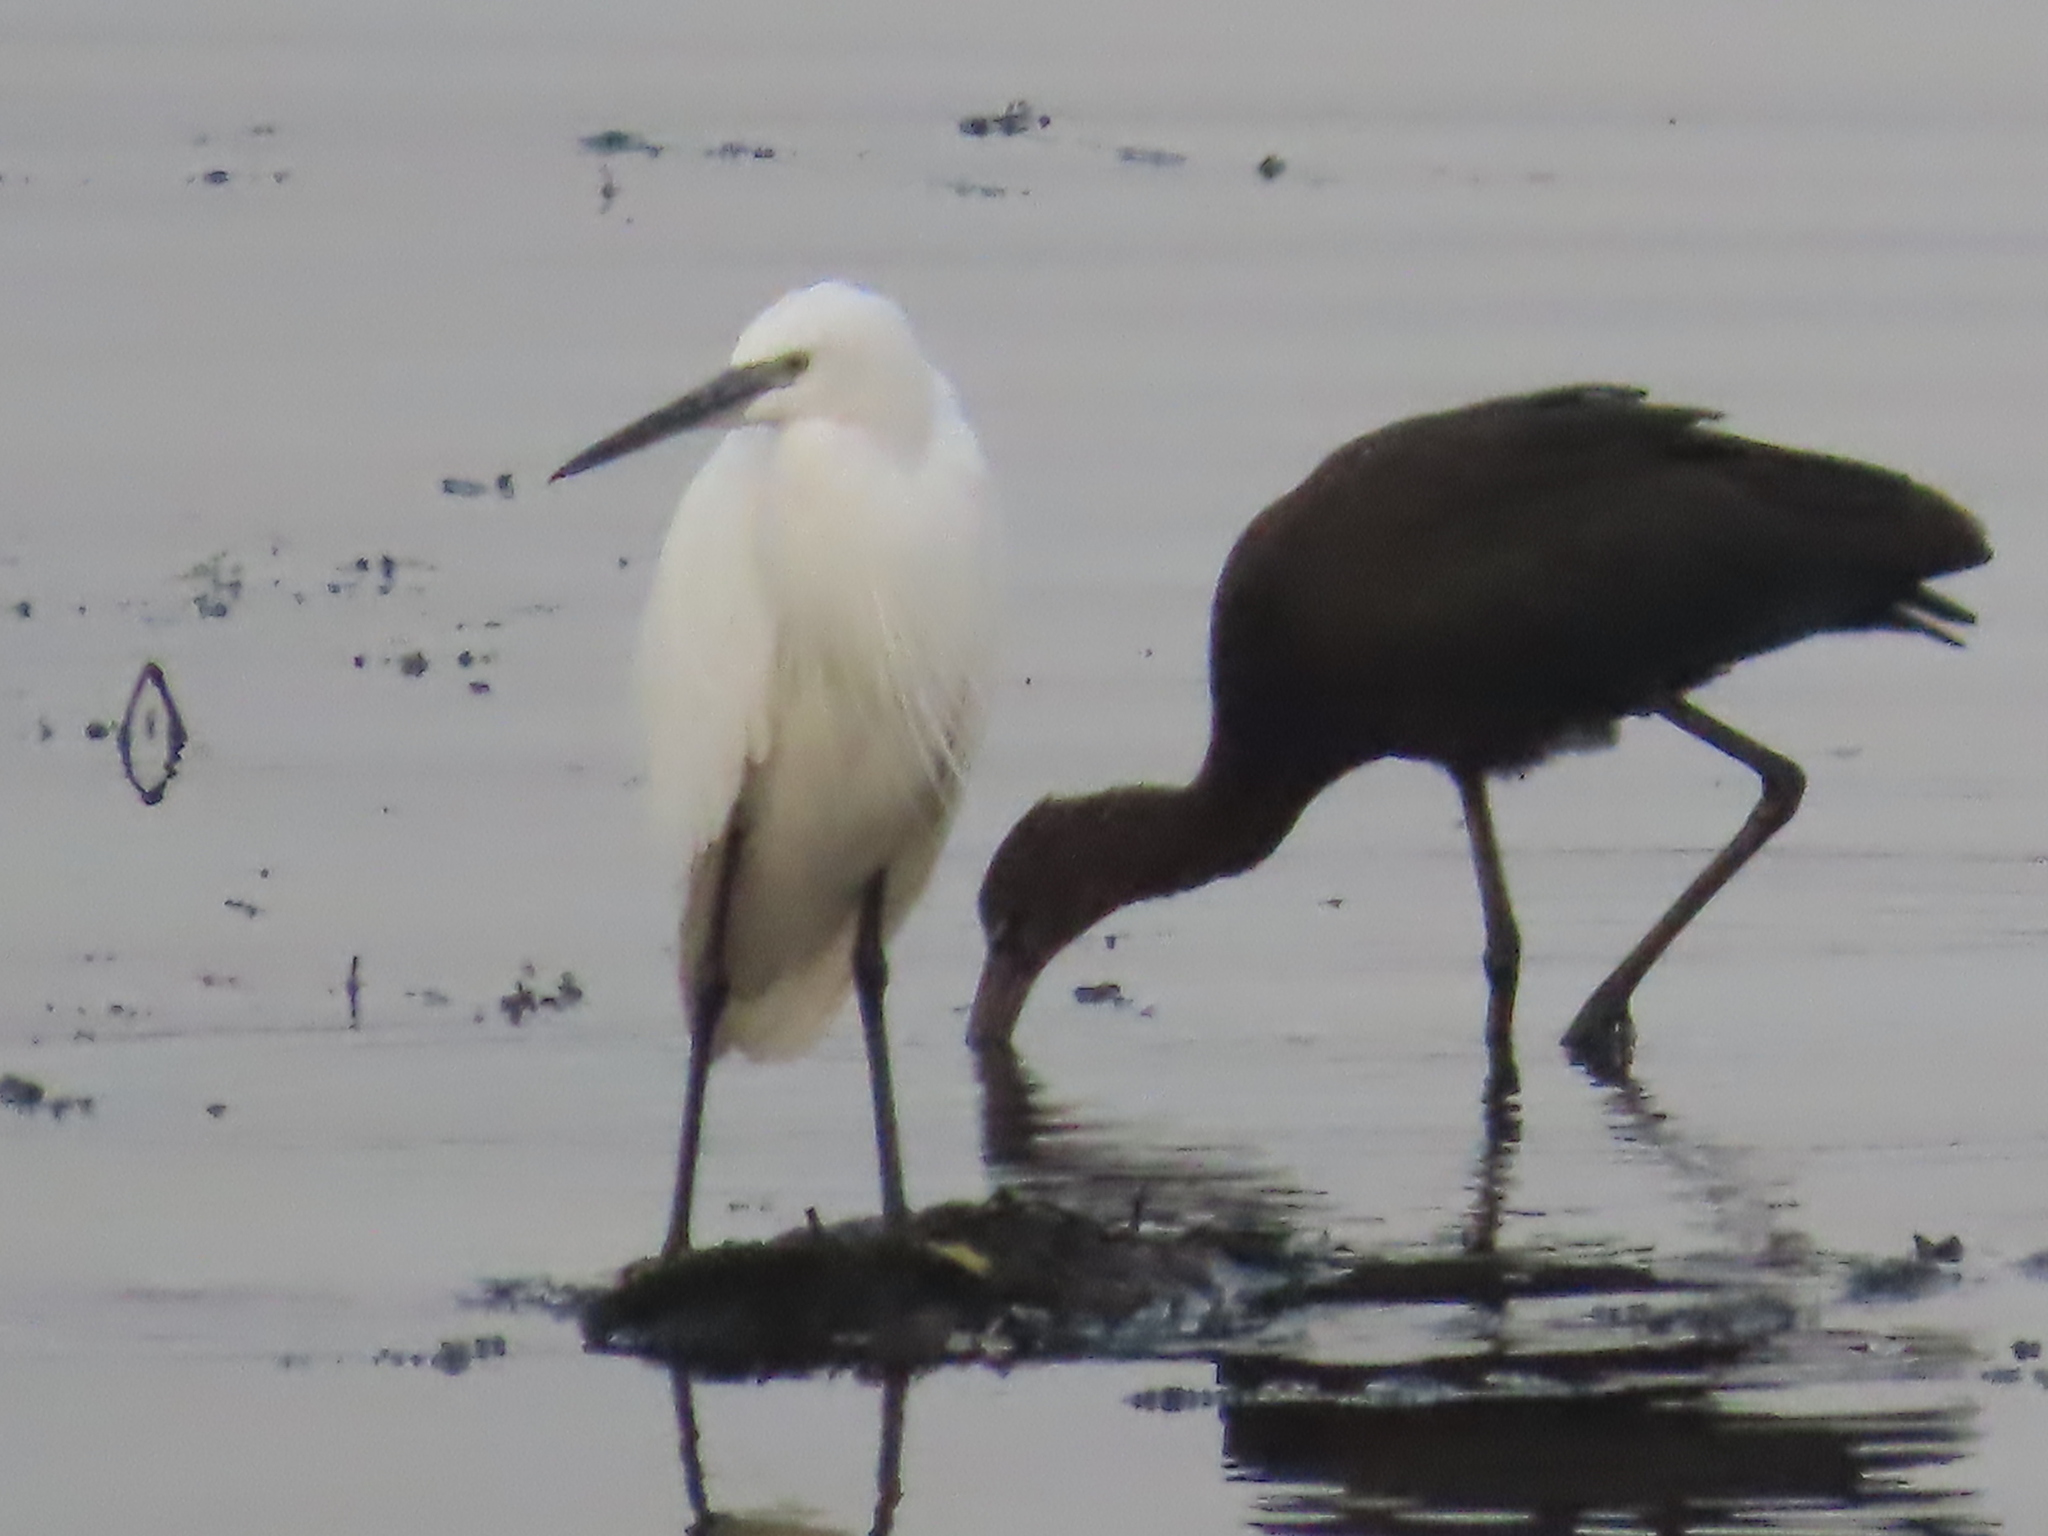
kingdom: Animalia
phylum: Chordata
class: Aves
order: Pelecaniformes
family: Threskiornithidae
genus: Plegadis
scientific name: Plegadis falcinellus
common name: Glossy ibis
